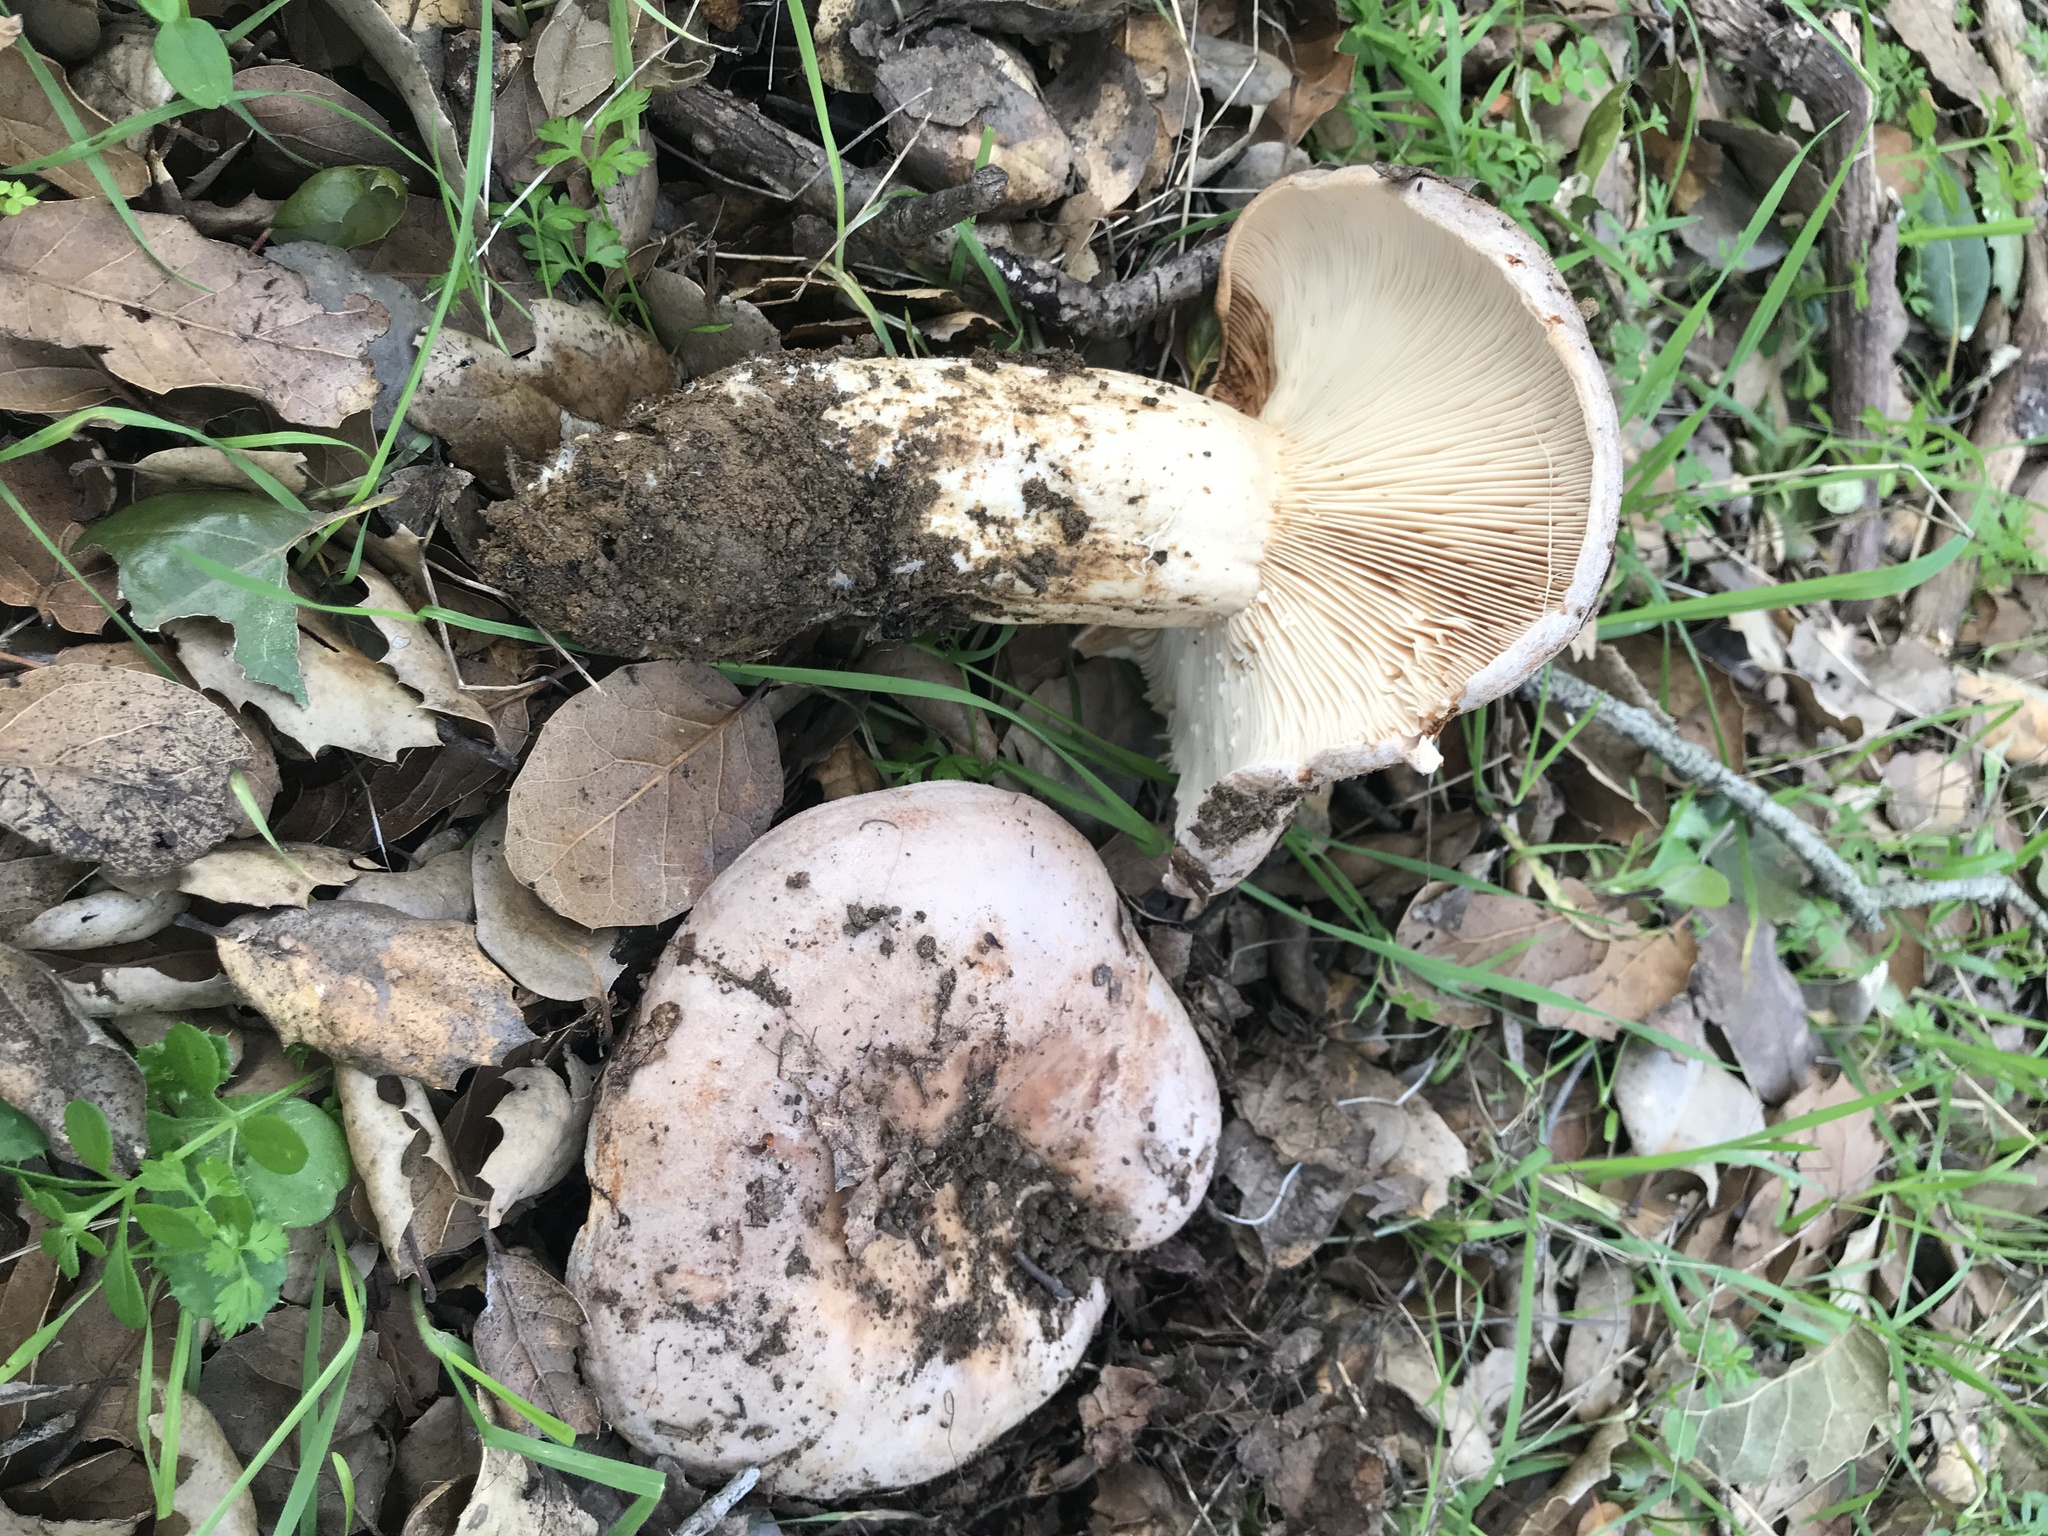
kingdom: Fungi
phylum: Basidiomycota
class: Agaricomycetes
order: Russulales
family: Russulaceae
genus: Lactarius
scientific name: Lactarius argillaceifolius
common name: Clay-gilled milkcap
